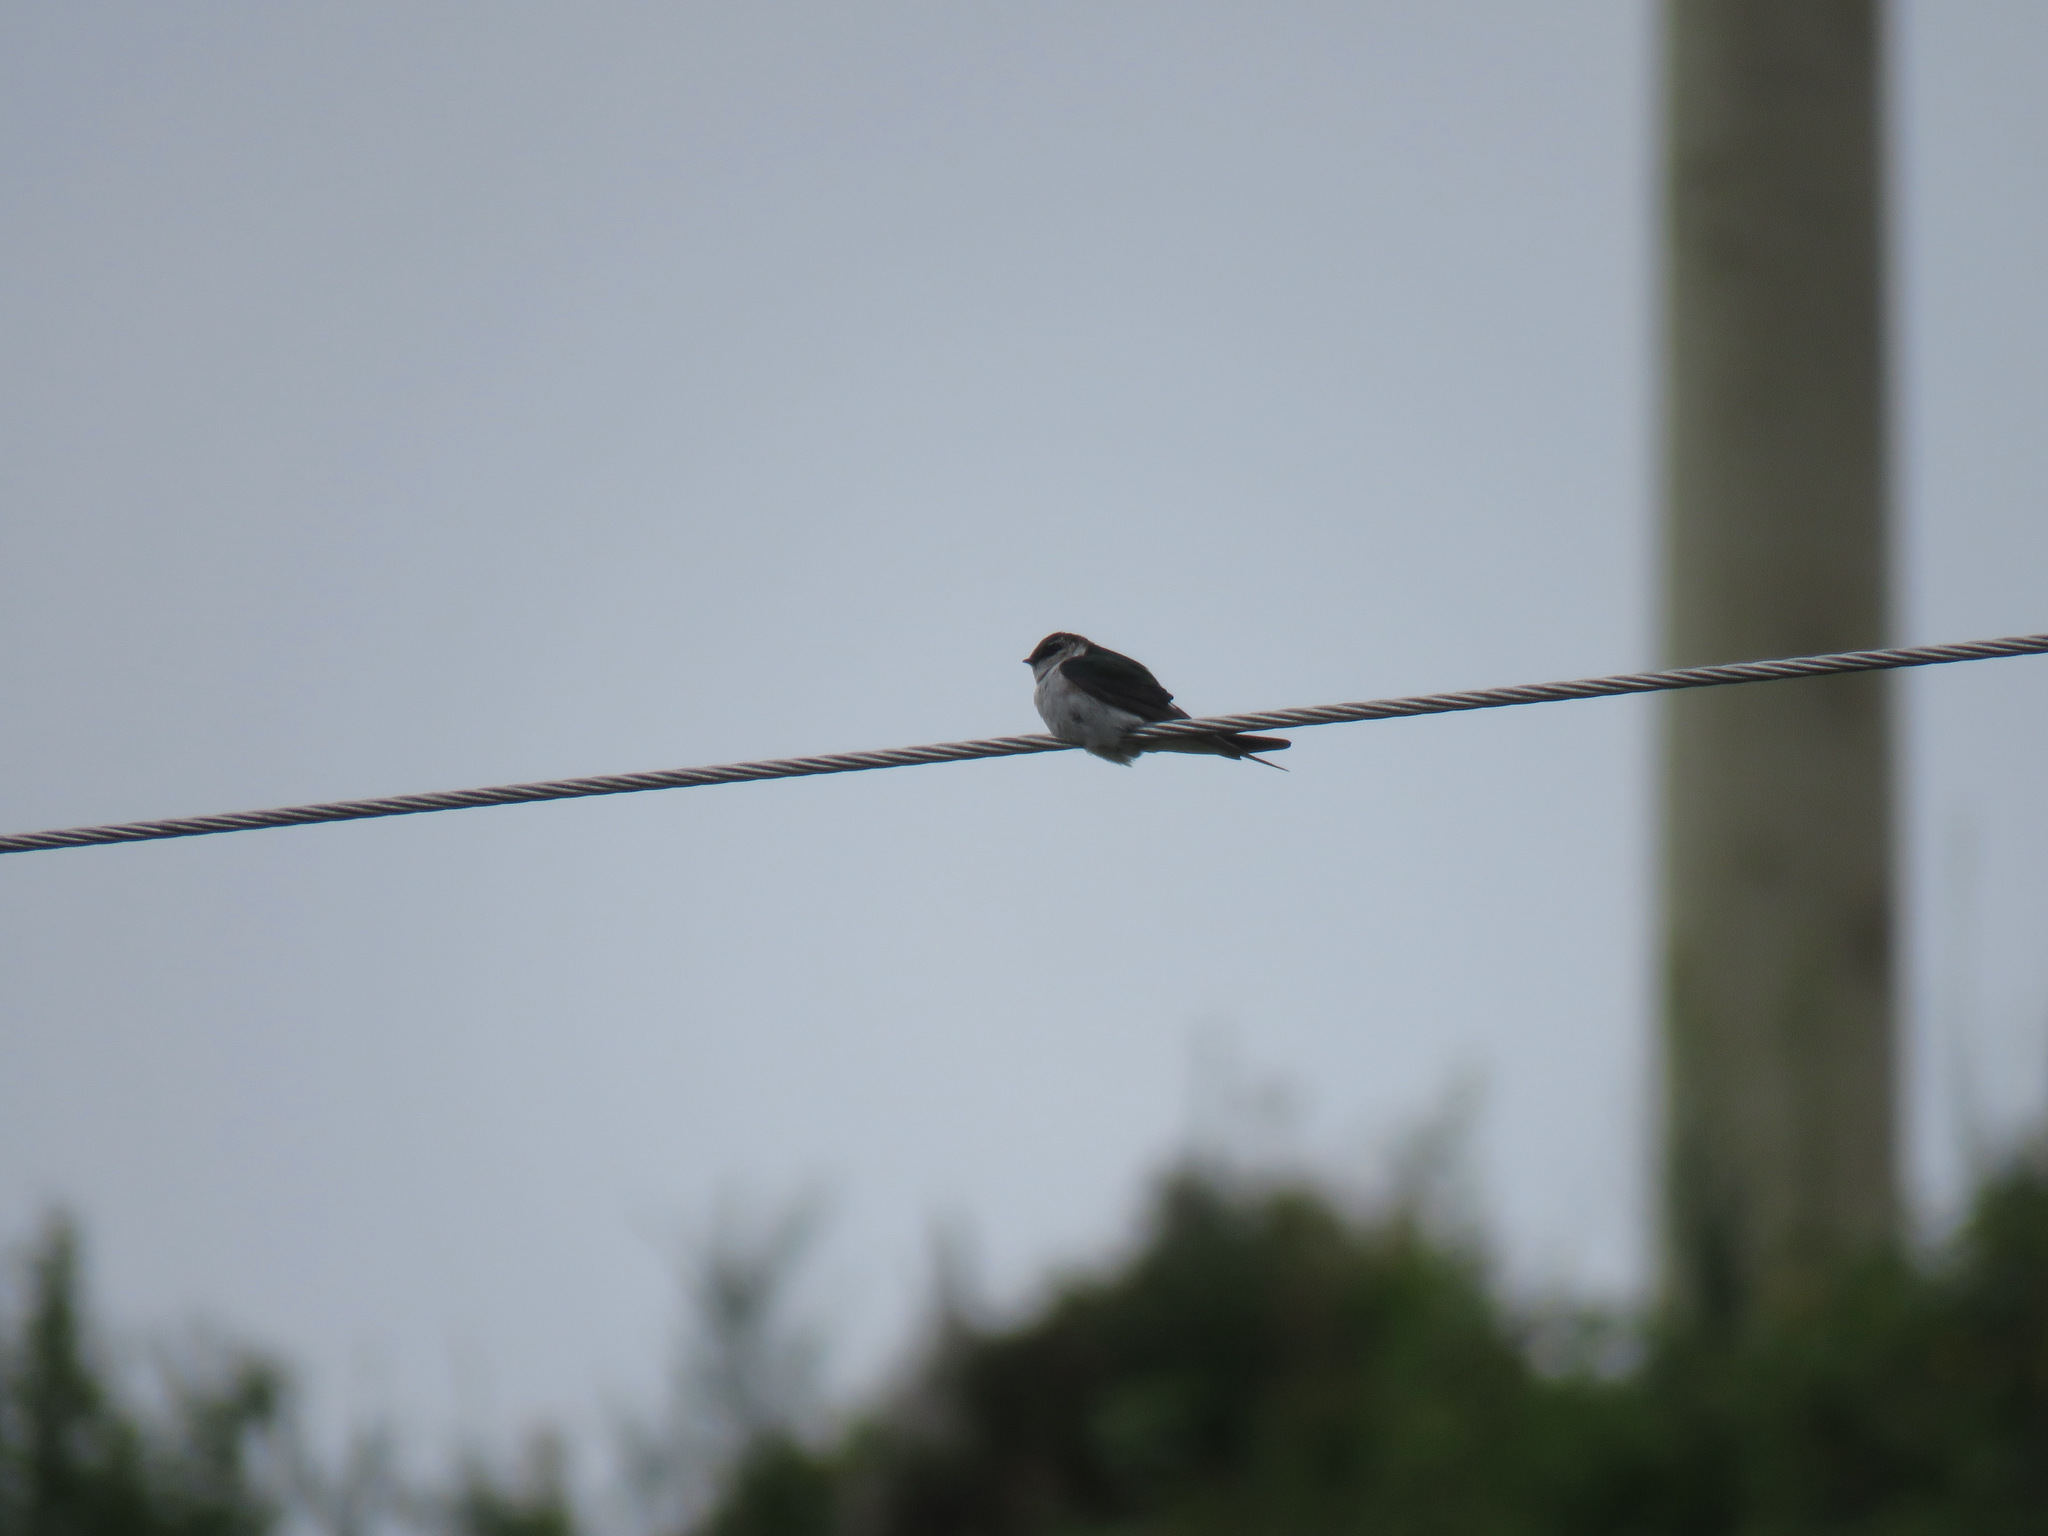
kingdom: Animalia
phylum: Chordata
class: Aves
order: Passeriformes
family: Hirundinidae
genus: Tachycineta
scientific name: Tachycineta thalassina
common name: Violet-green swallow
